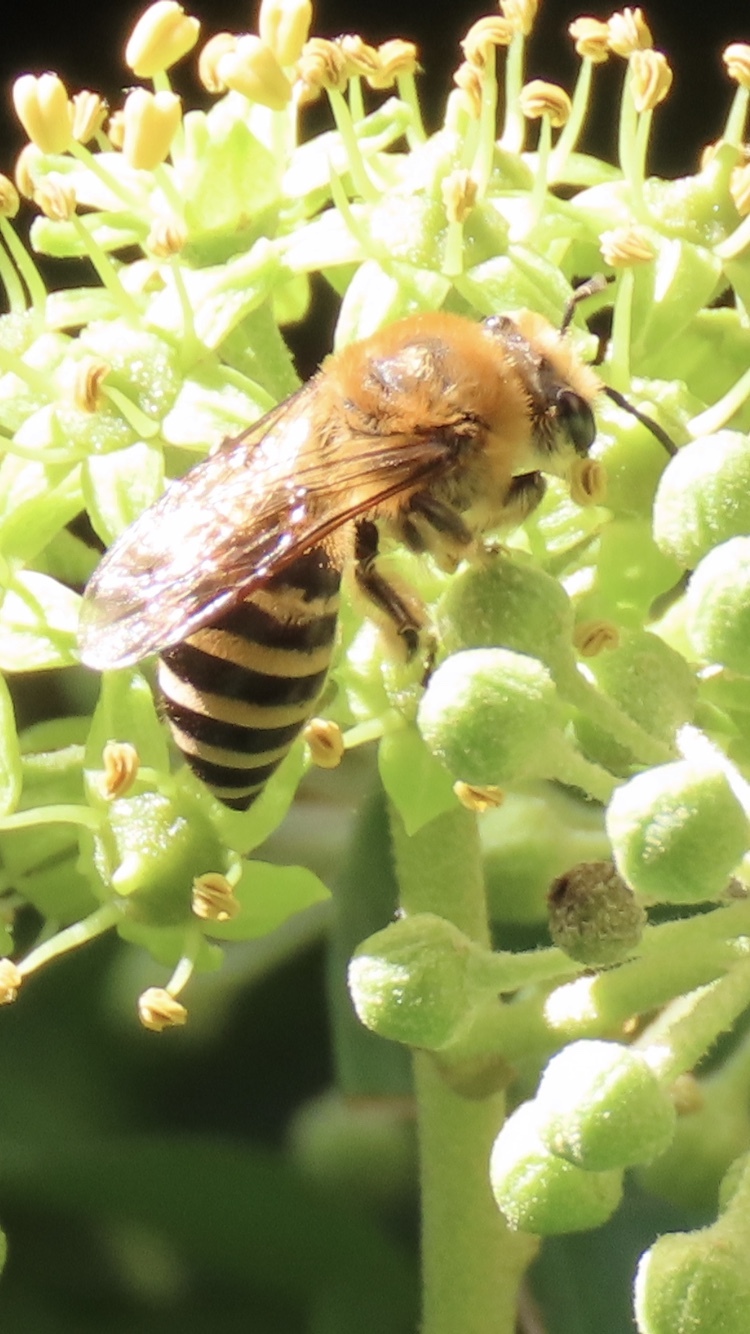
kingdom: Animalia
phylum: Arthropoda
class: Insecta
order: Hymenoptera
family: Colletidae
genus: Colletes
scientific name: Colletes hederae
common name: Ivy bee
